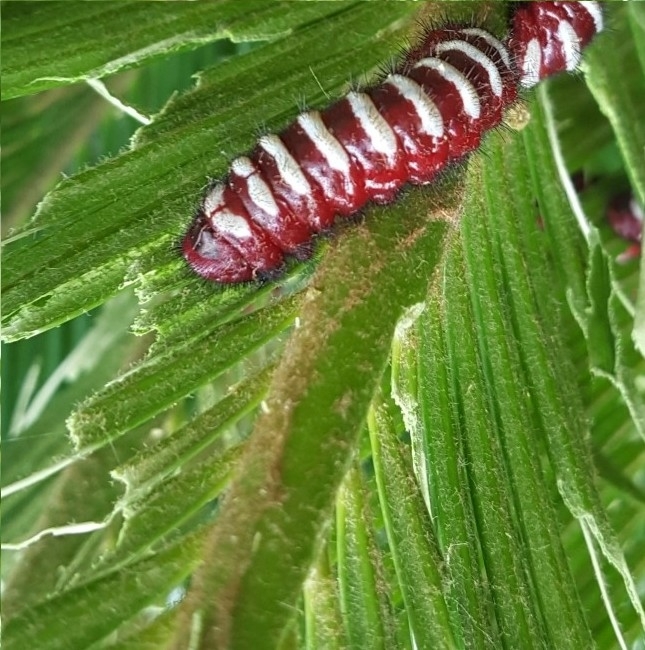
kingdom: Animalia
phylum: Arthropoda
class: Insecta
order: Lepidoptera
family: Lycaenidae
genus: Eumaeus
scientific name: Eumaeus childrenae
